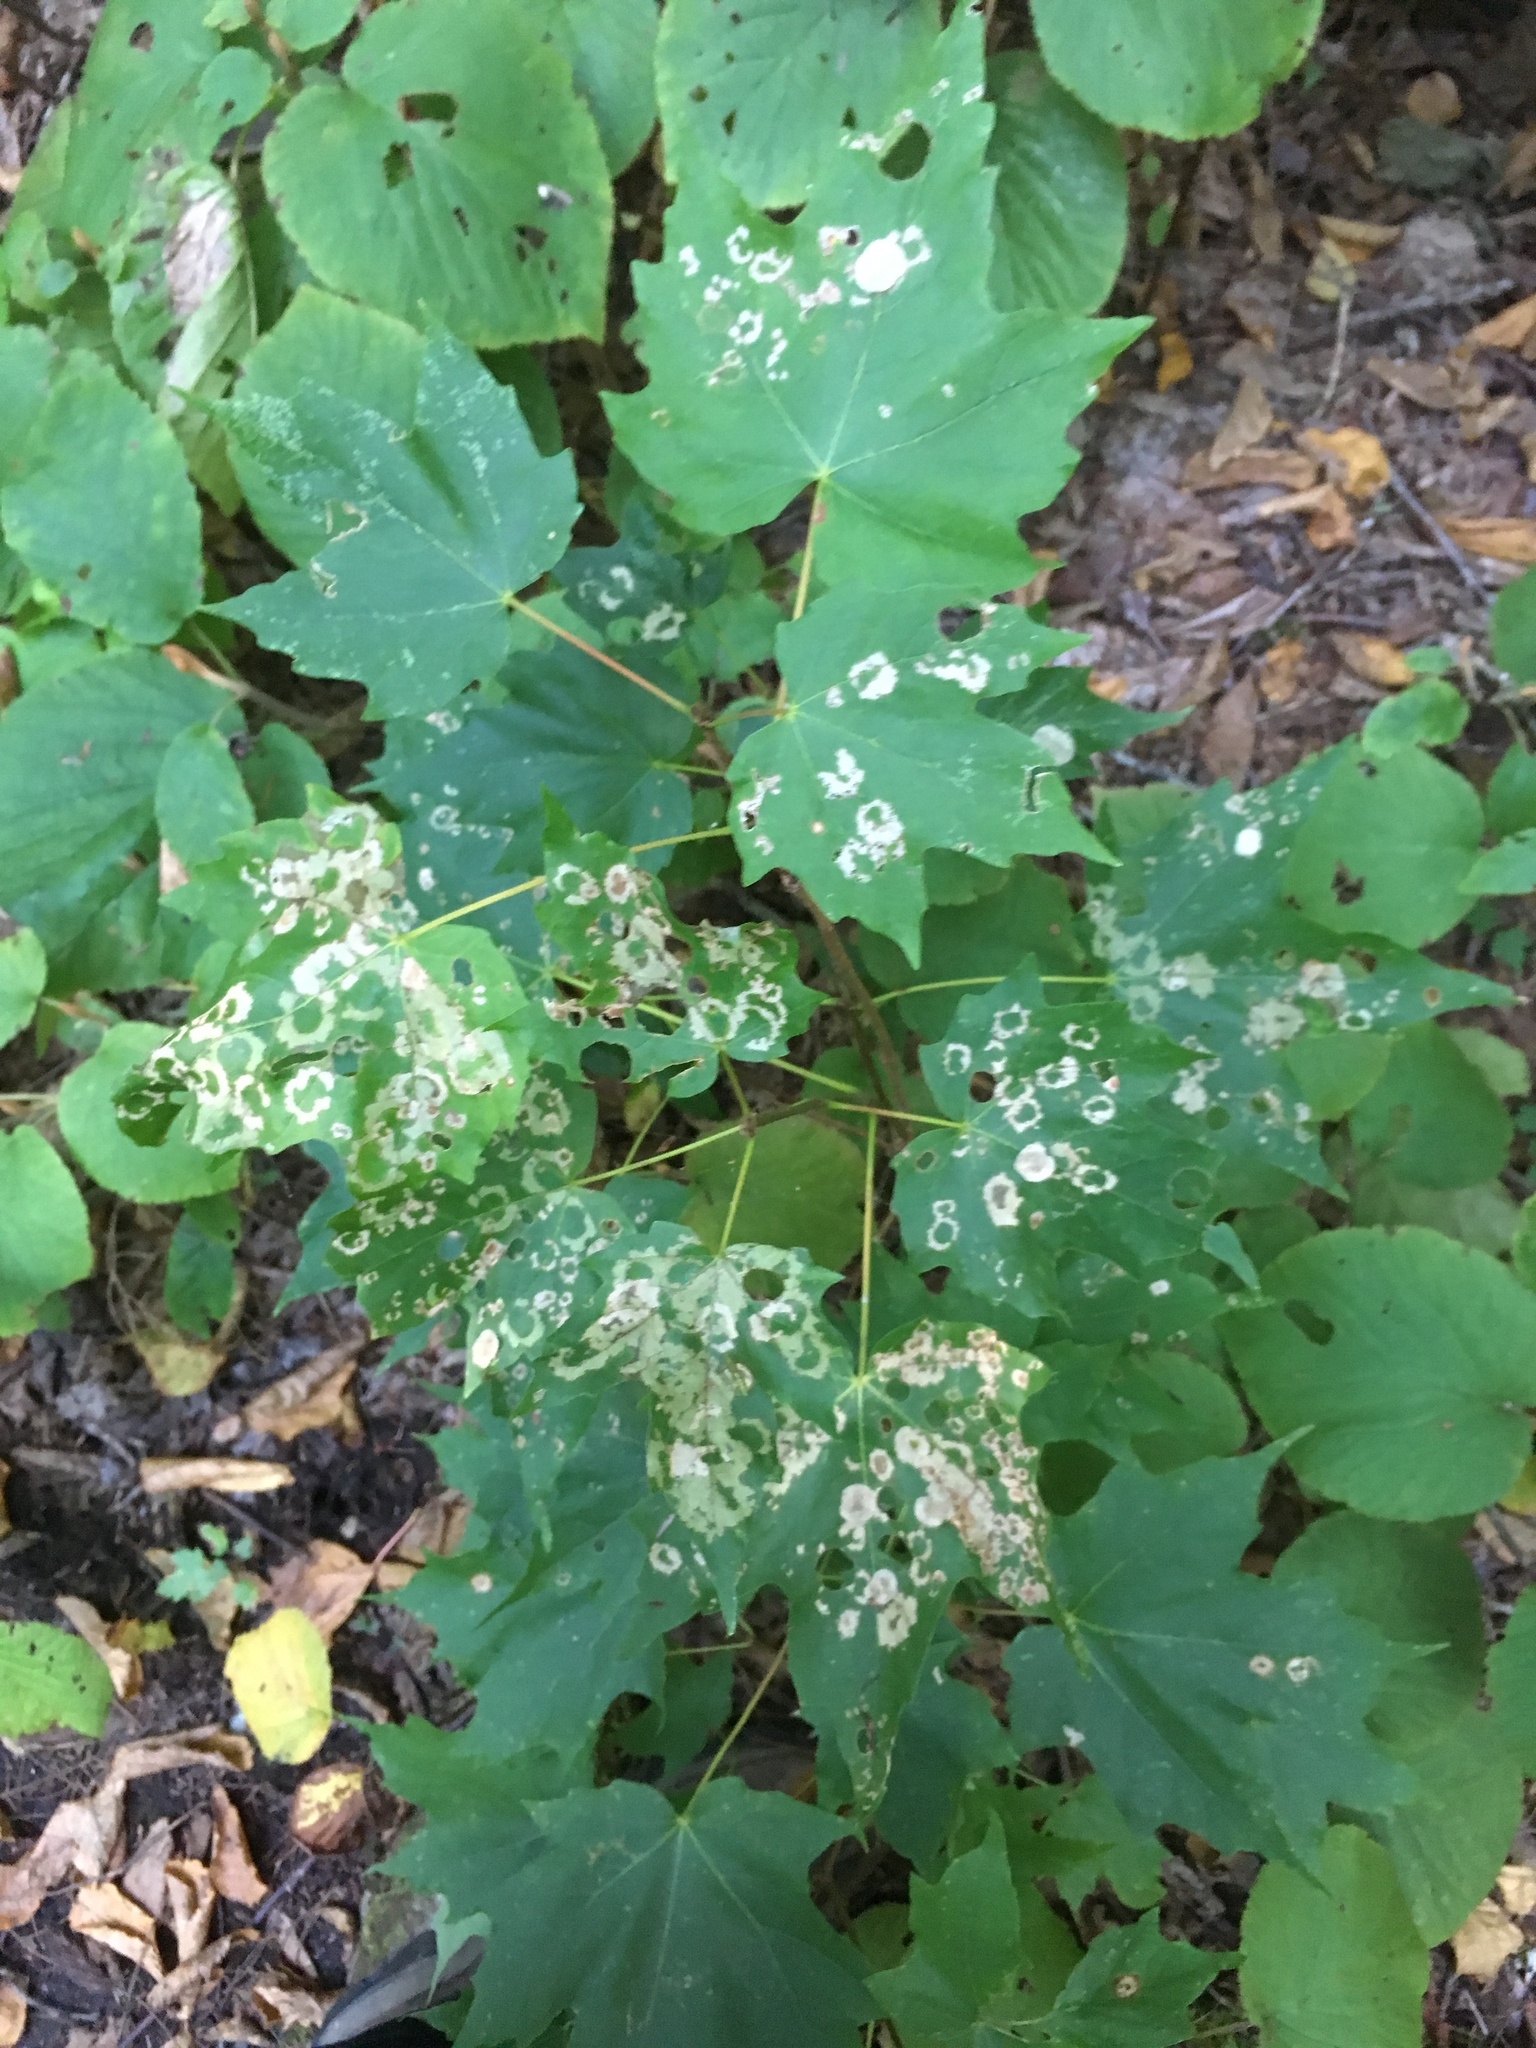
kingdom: Animalia
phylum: Arthropoda
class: Insecta
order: Lepidoptera
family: Incurvariidae
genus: Paraclemensia
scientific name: Paraclemensia acerifoliella
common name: Maple leafcutter
